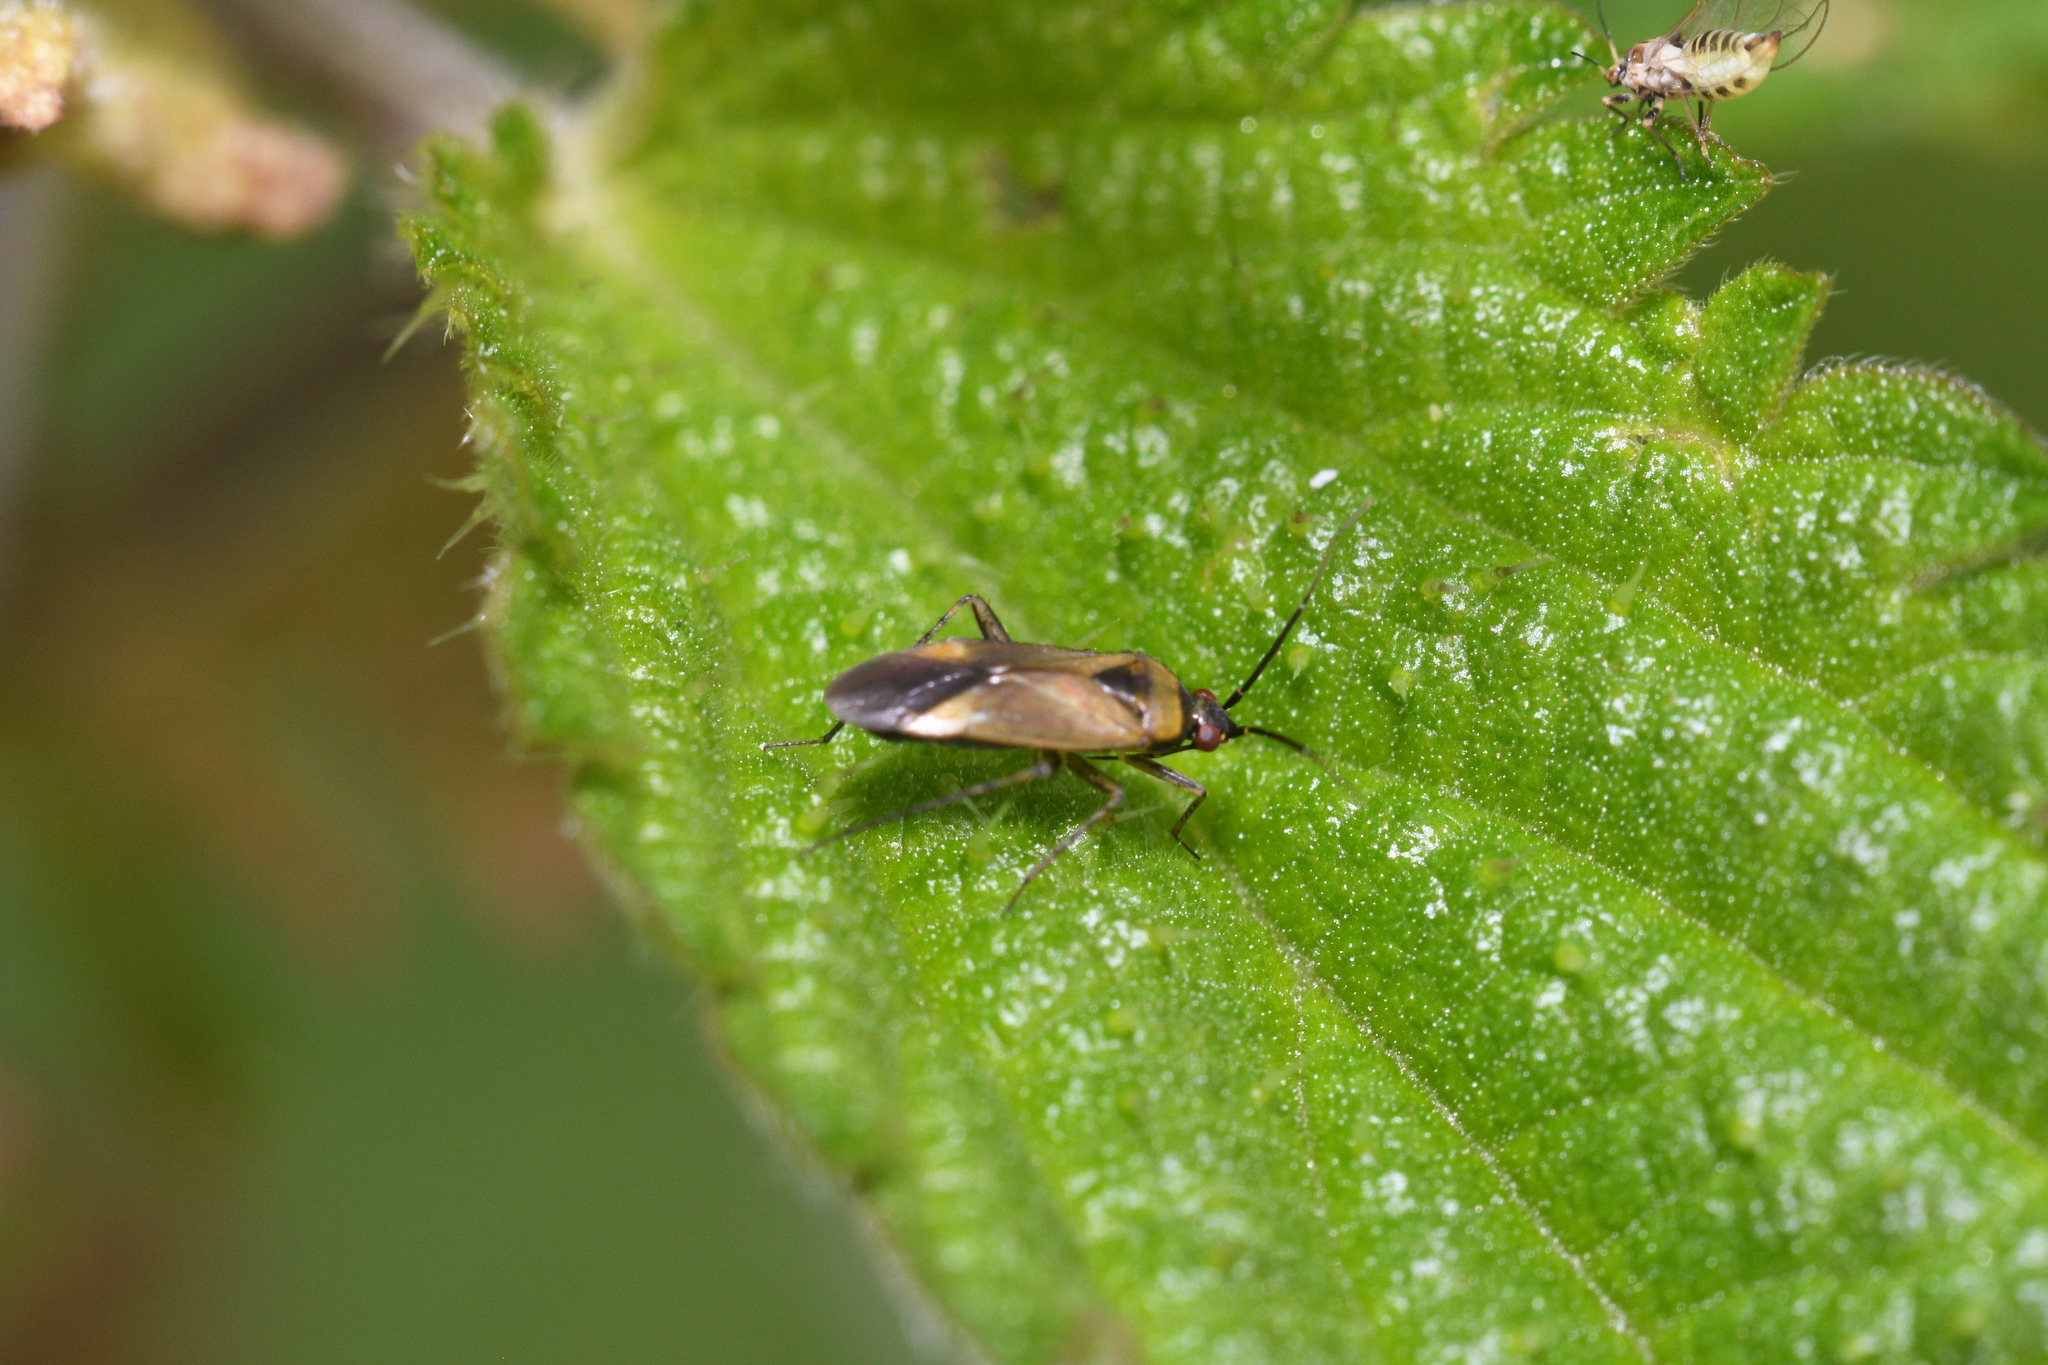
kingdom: Animalia
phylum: Arthropoda
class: Insecta
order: Hemiptera
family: Miridae
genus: Plagiognathus
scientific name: Plagiognathus arbustorum
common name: Plant bug
